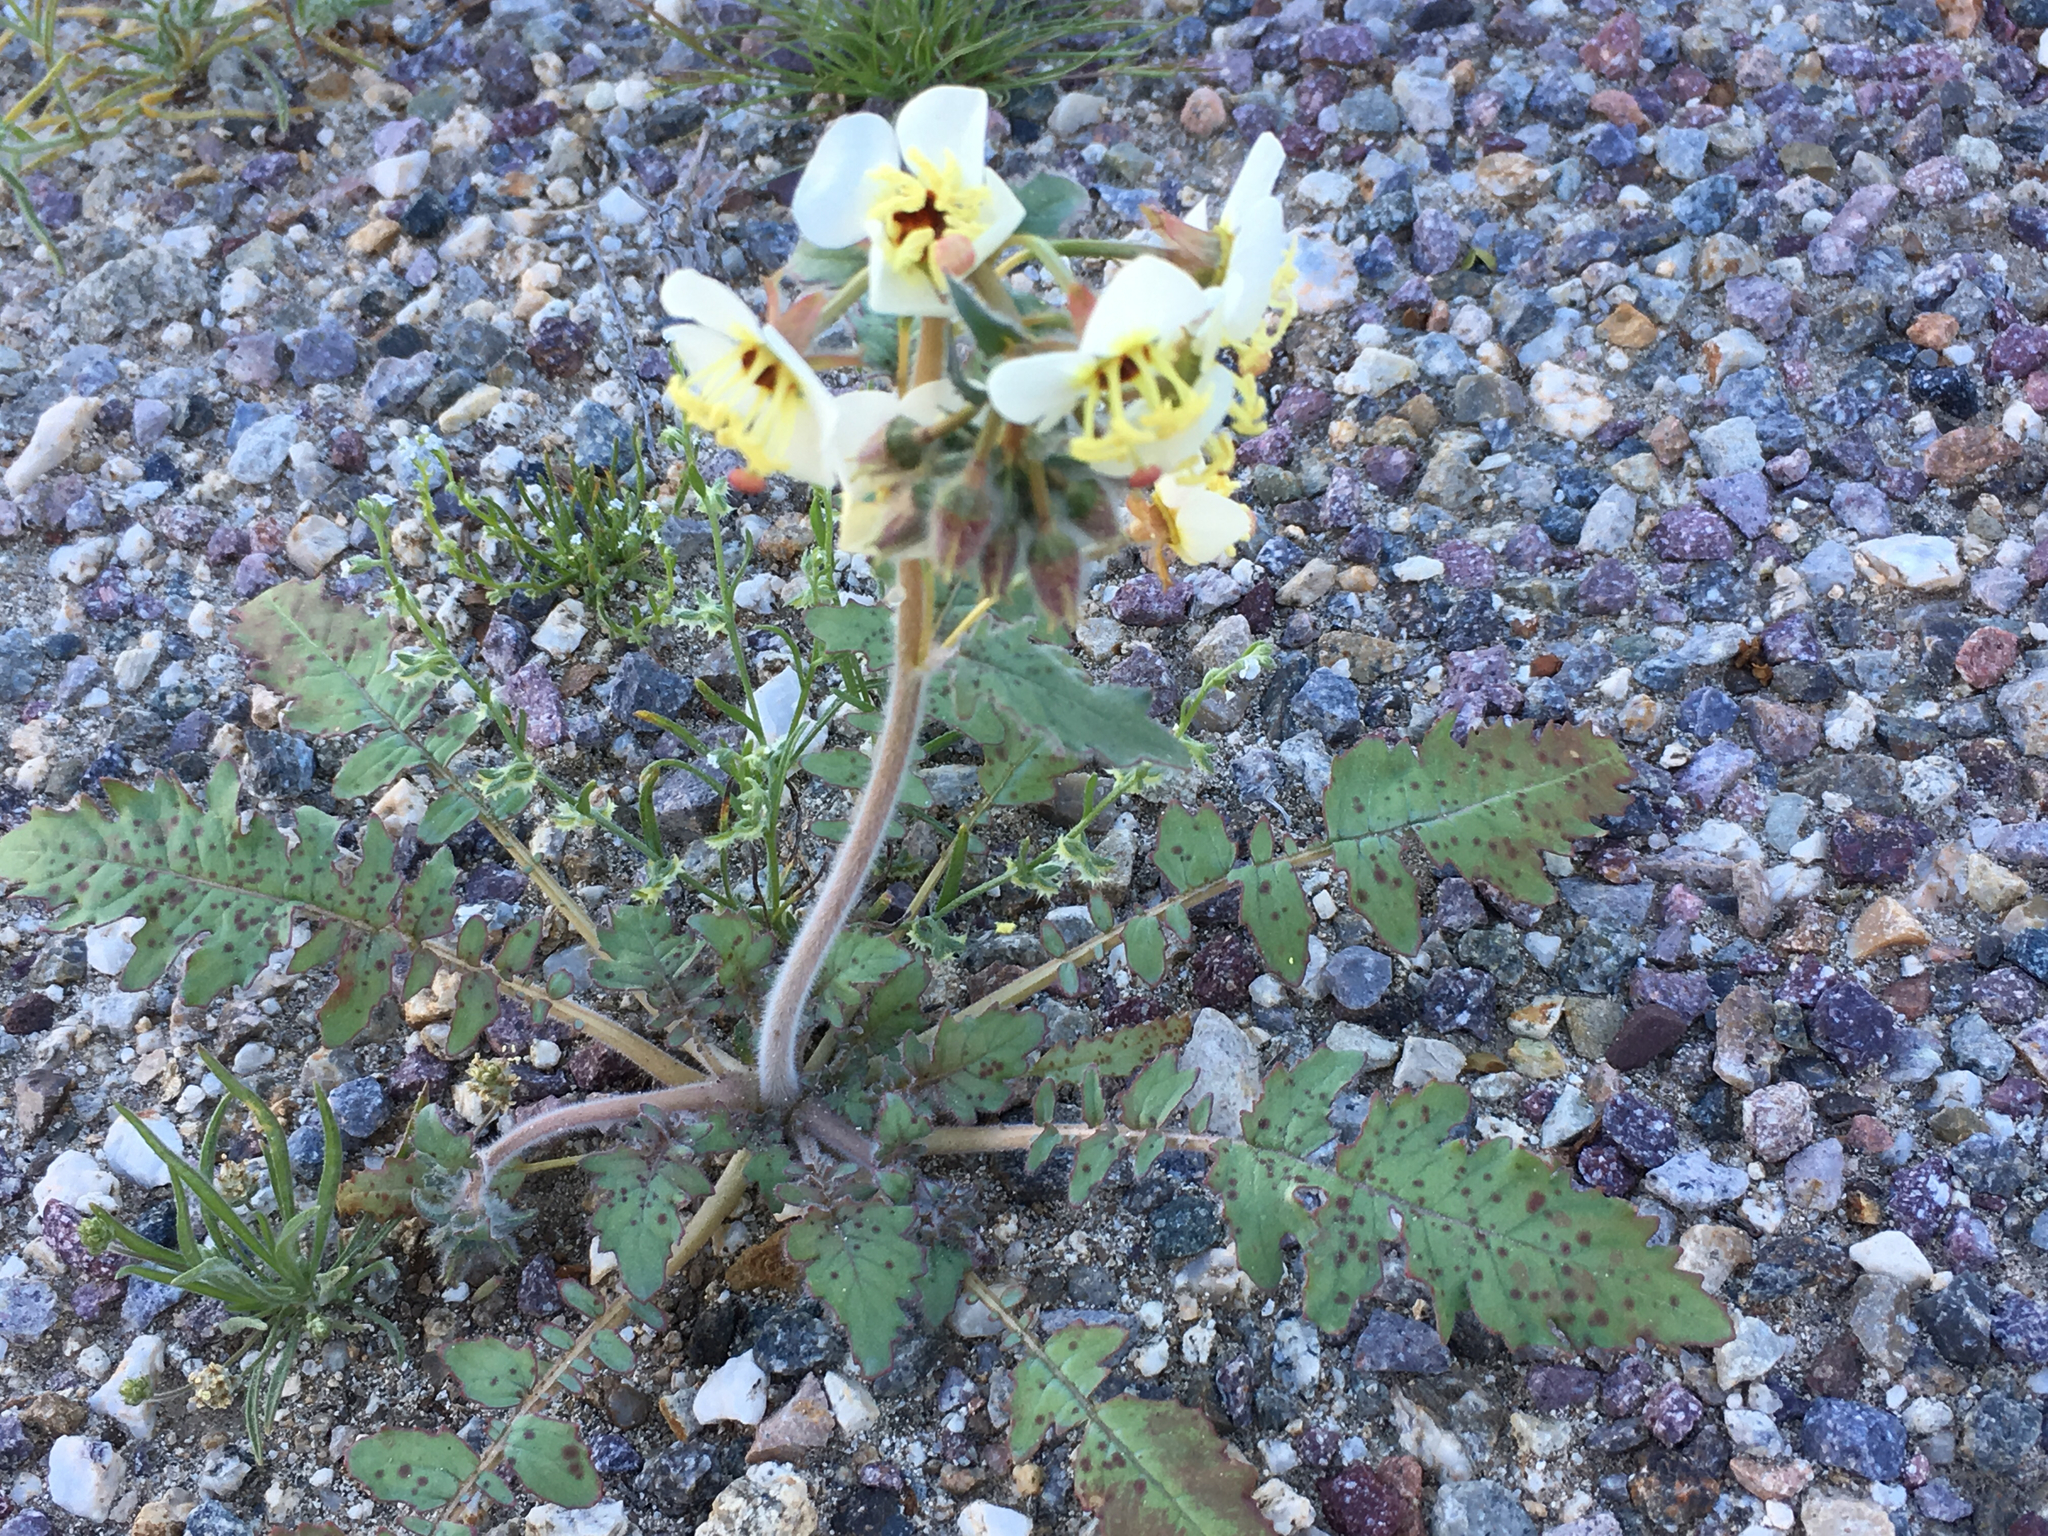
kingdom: Plantae
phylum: Tracheophyta
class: Magnoliopsida
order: Myrtales
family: Onagraceae
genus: Chylismia
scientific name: Chylismia claviformis
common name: Browneyes
